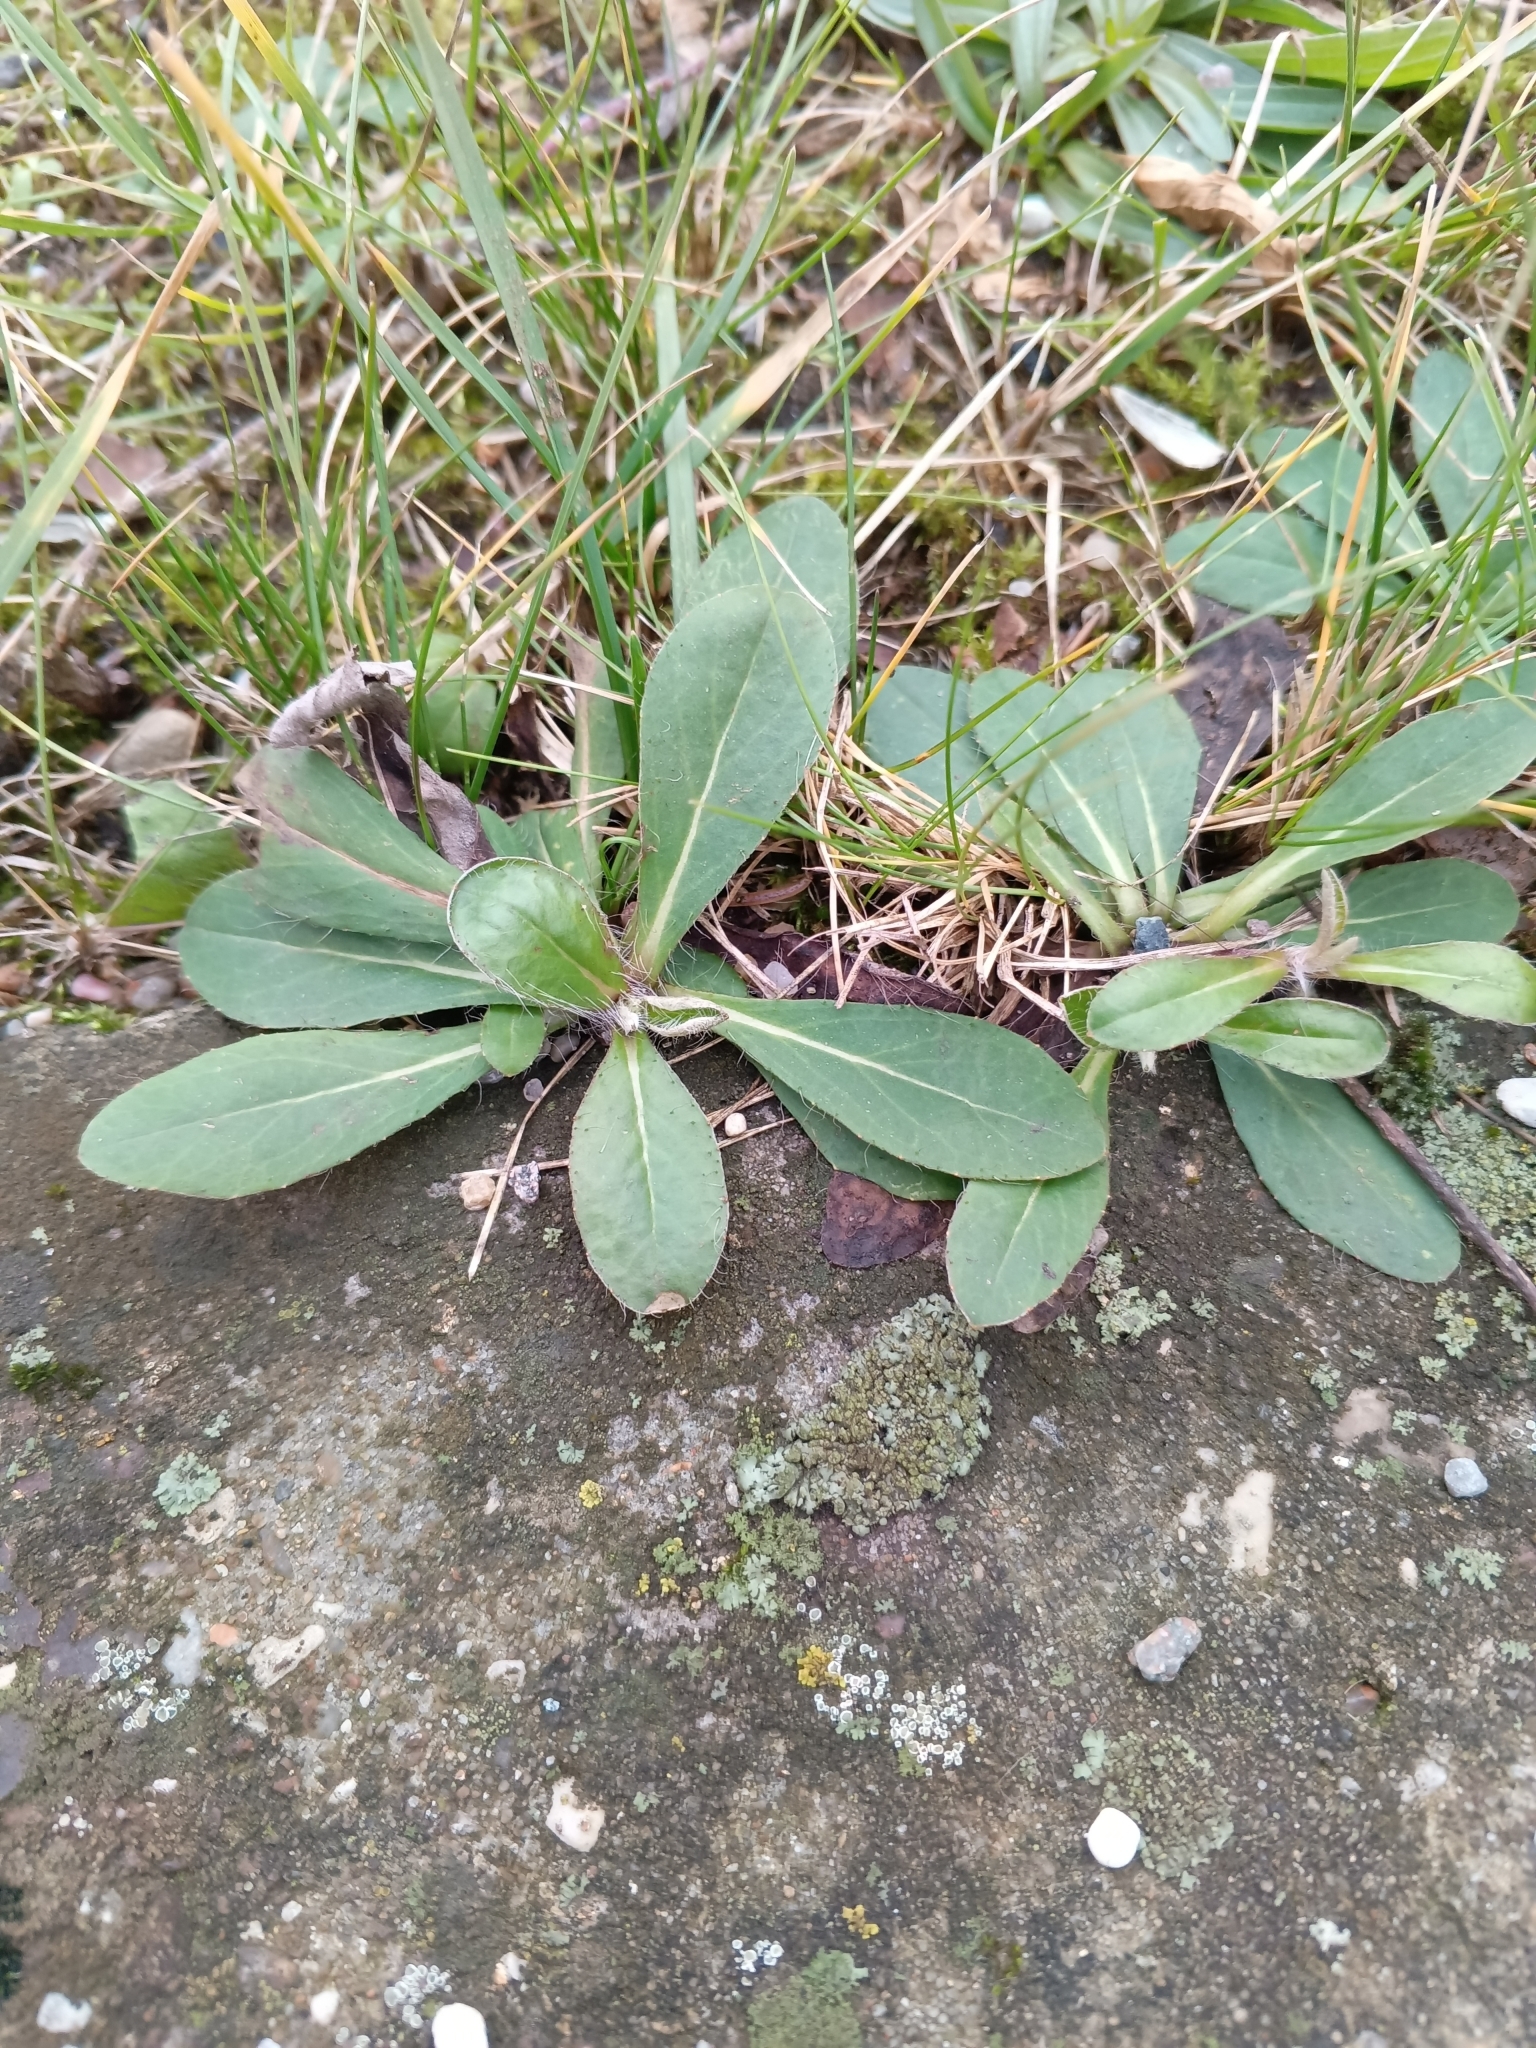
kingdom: Plantae
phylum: Tracheophyta
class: Magnoliopsida
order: Asterales
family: Asteraceae
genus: Pilosella
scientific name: Pilosella officinarum
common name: Mouse-ear hawkweed
